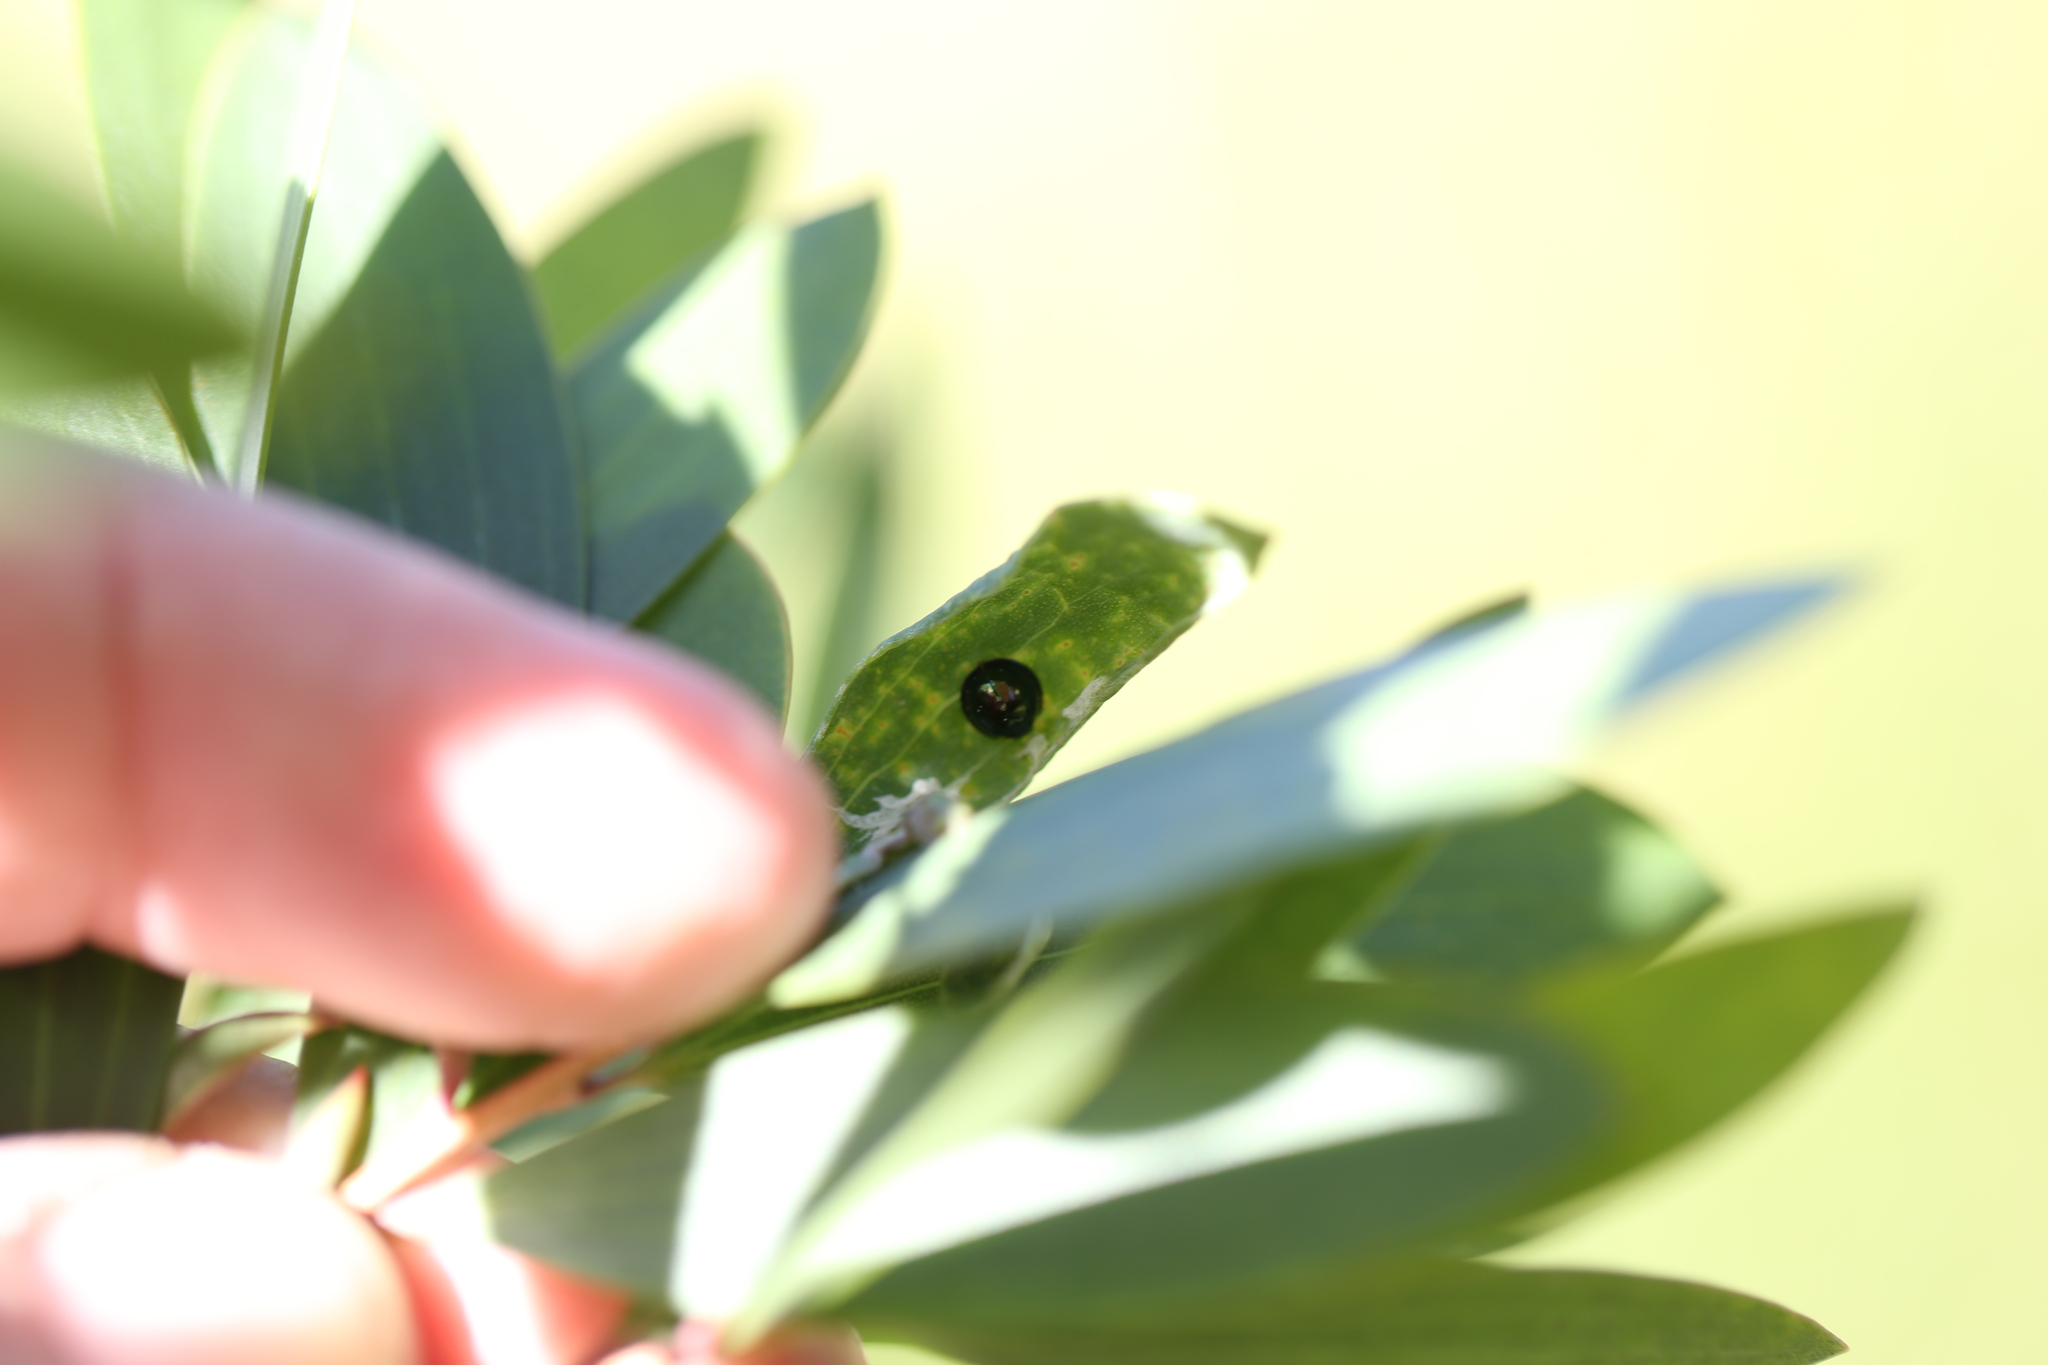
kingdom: Animalia
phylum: Arthropoda
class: Insecta
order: Coleoptera
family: Coccinellidae
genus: Halmus
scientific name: Halmus chalybeus
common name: Steel blue ladybird beetle
